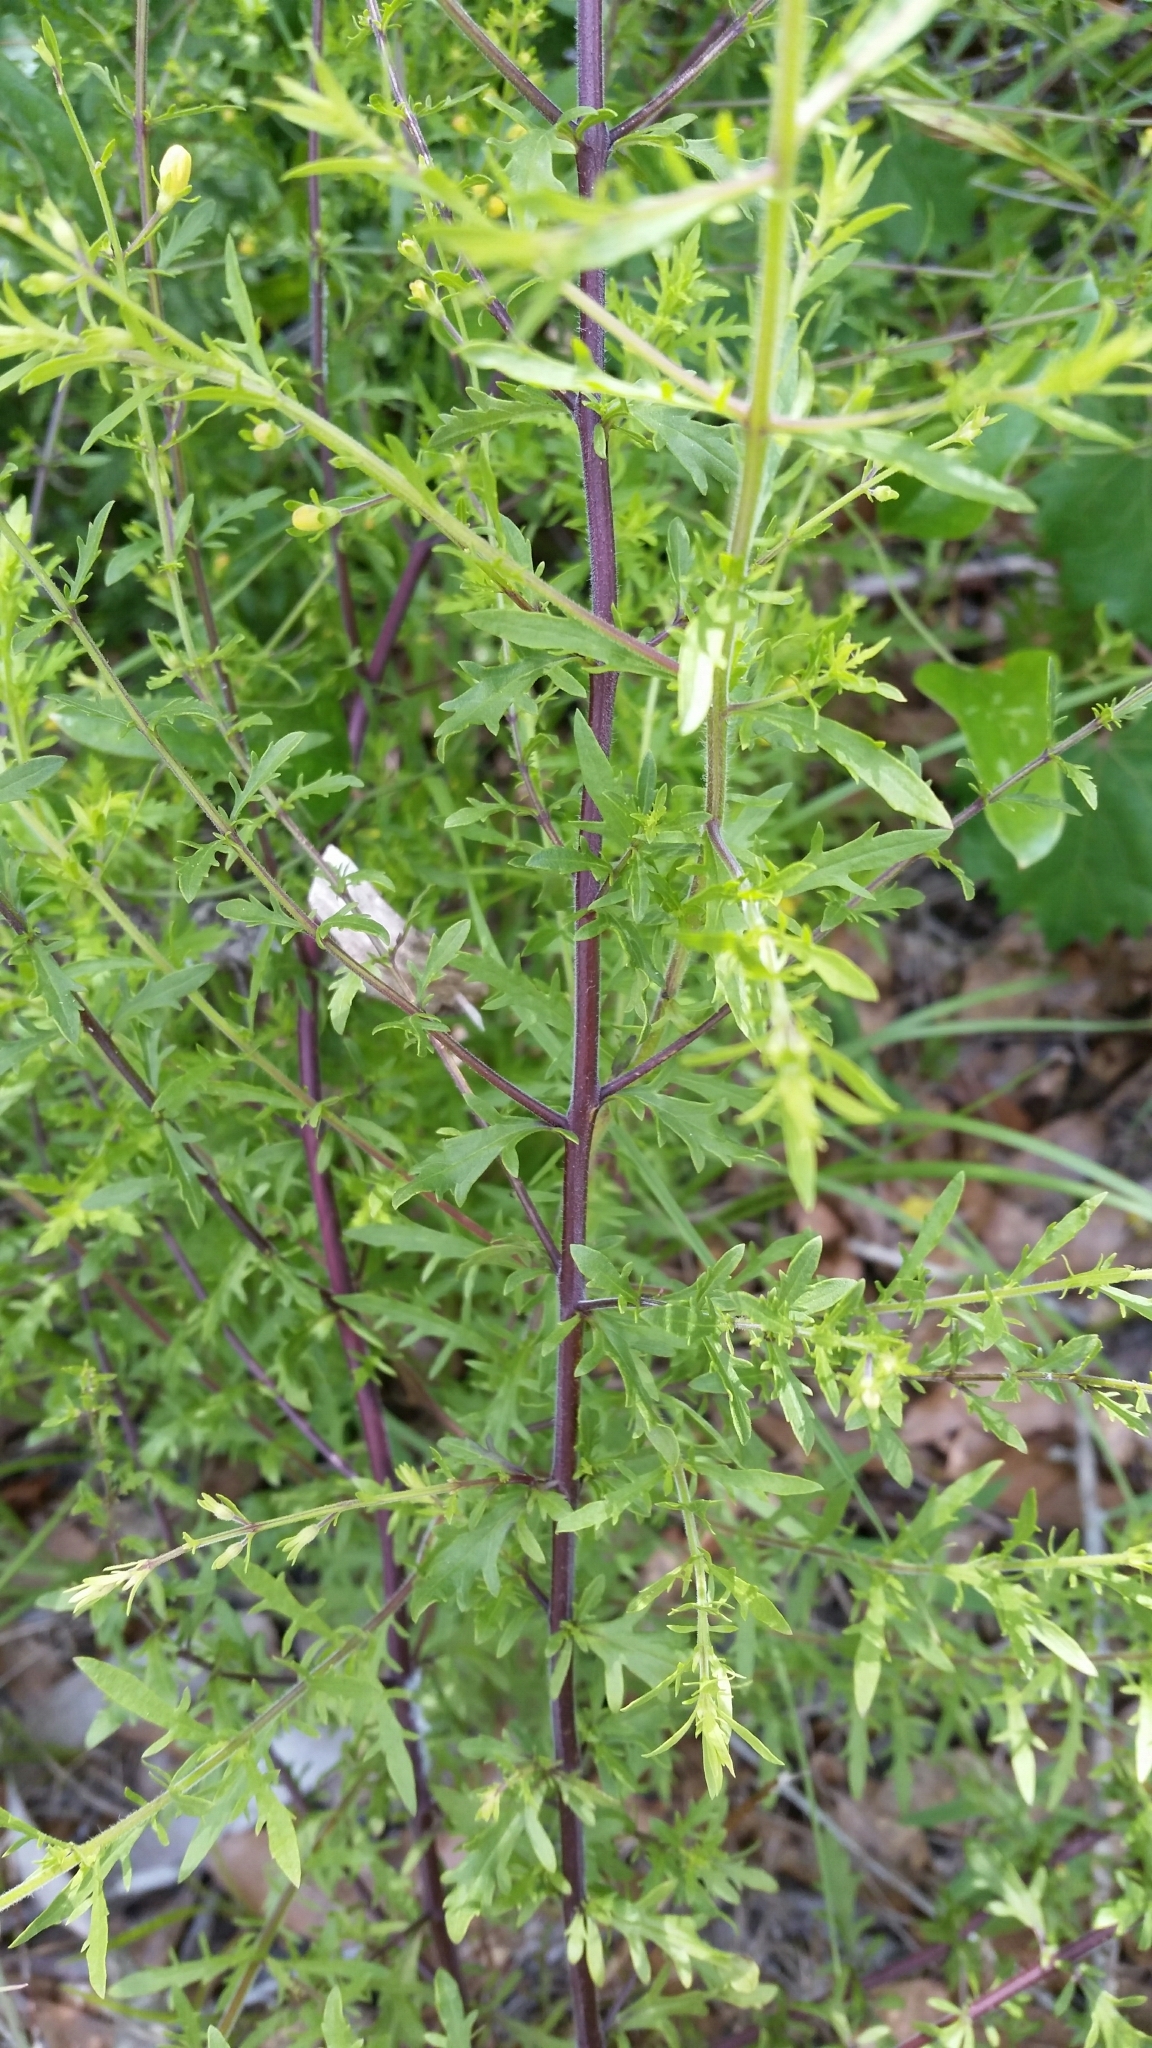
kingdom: Plantae
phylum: Tracheophyta
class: Magnoliopsida
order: Lamiales
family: Orobanchaceae
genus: Seymeria
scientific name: Seymeria pectinata
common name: Piedmont black-senna
